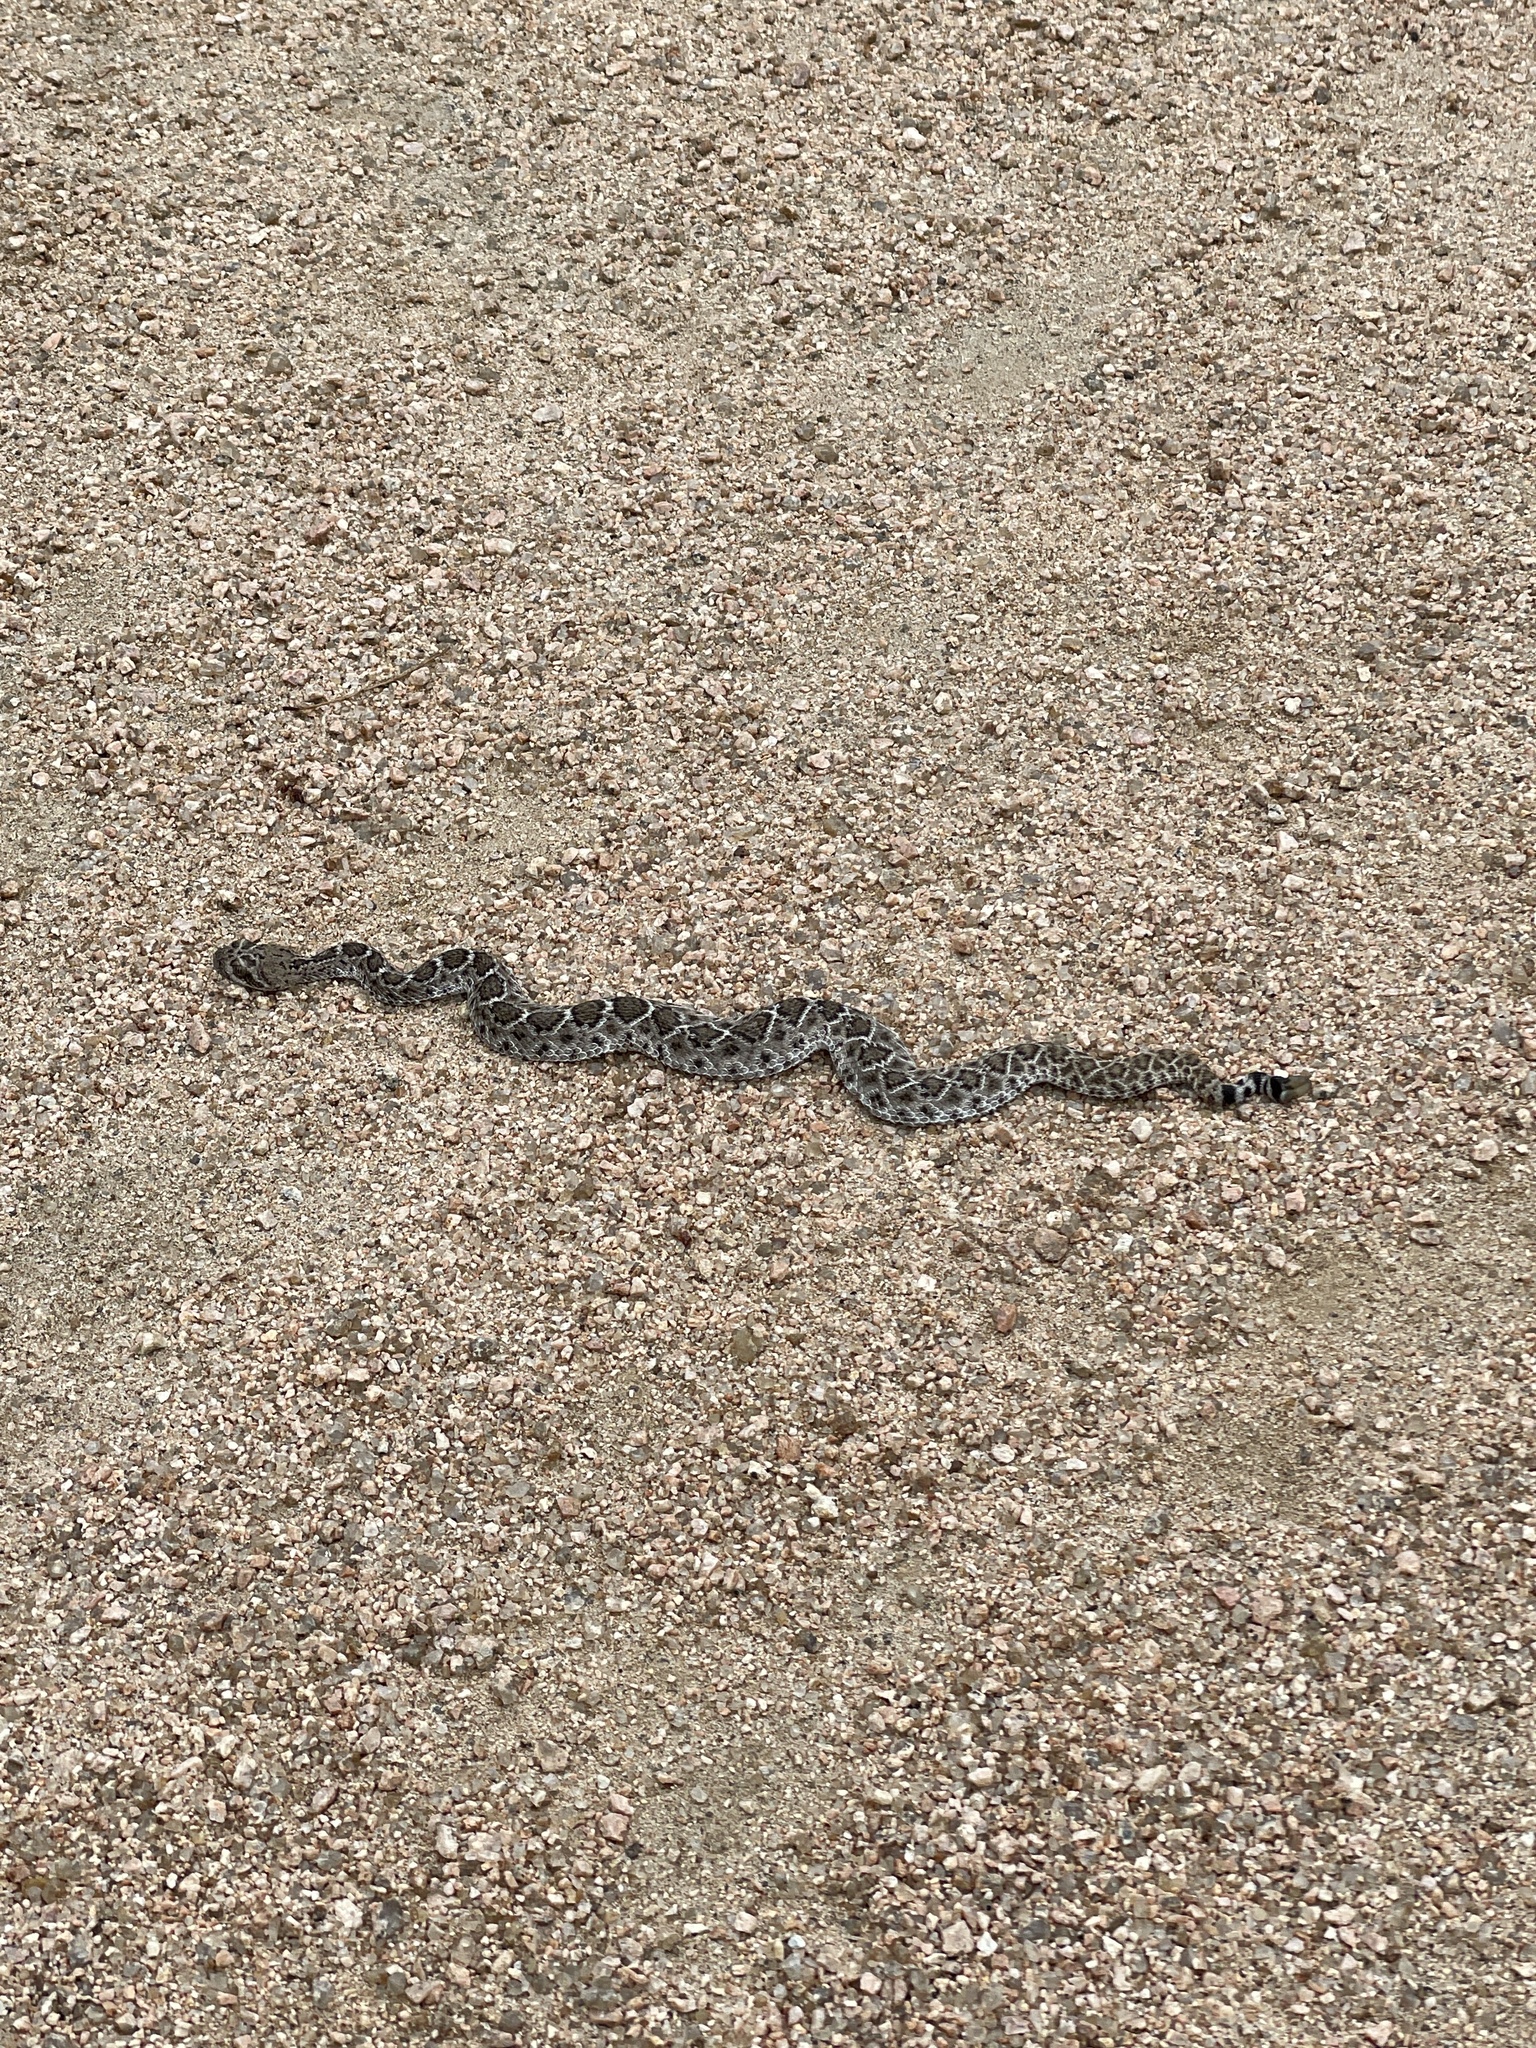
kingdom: Animalia
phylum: Chordata
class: Squamata
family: Viperidae
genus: Crotalus
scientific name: Crotalus atrox
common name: Western diamond-backed rattlesnake
